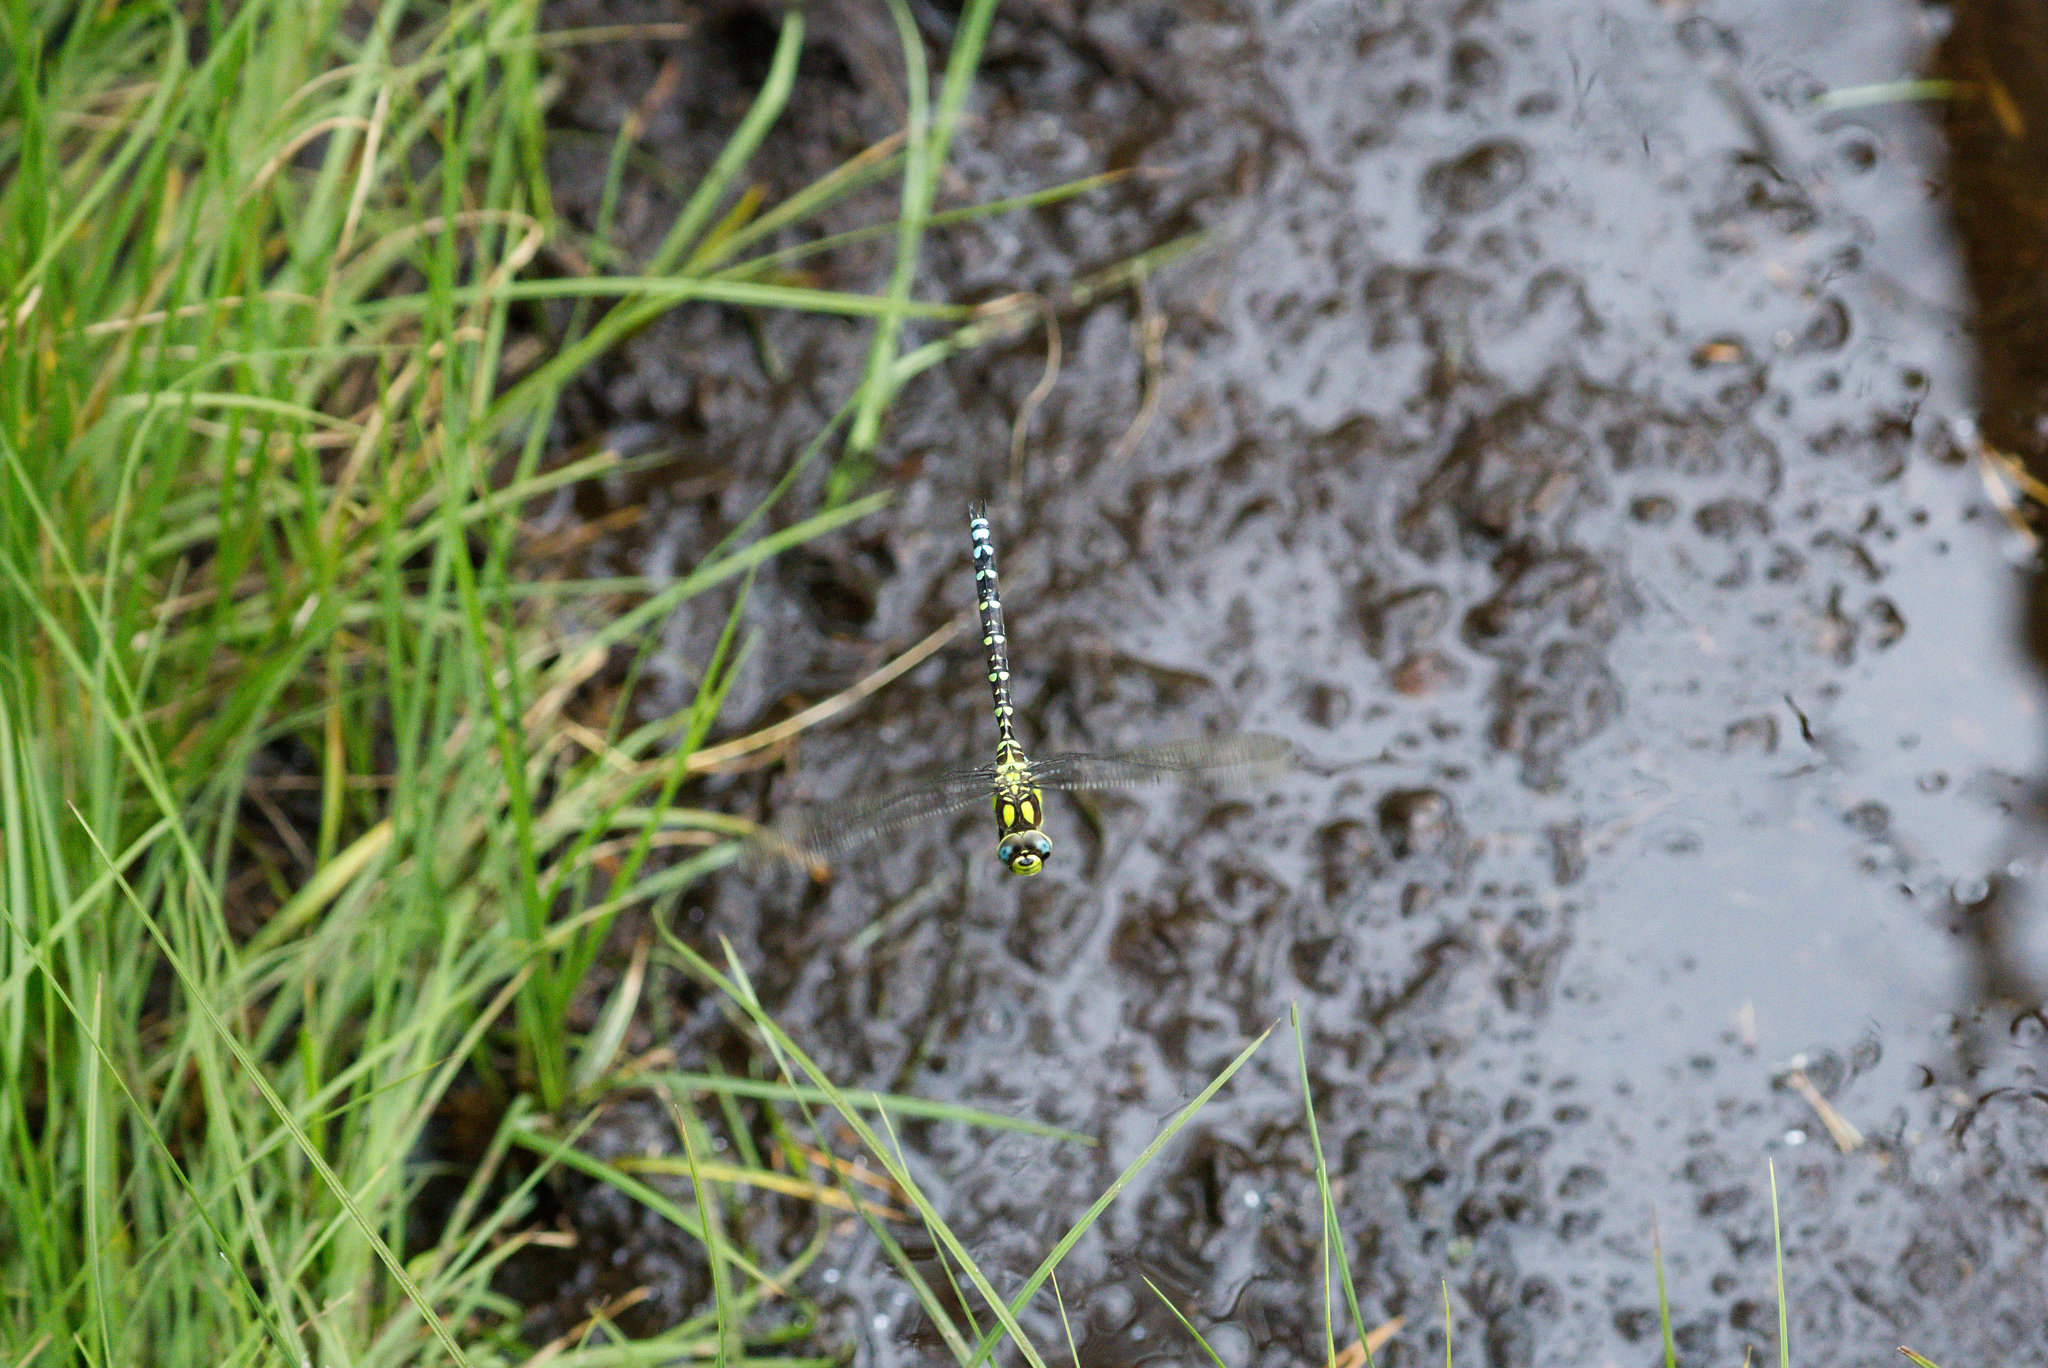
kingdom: Animalia
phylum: Arthropoda
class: Insecta
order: Odonata
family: Aeshnidae
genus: Aeshna
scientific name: Aeshna cyanea
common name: Southern hawker
